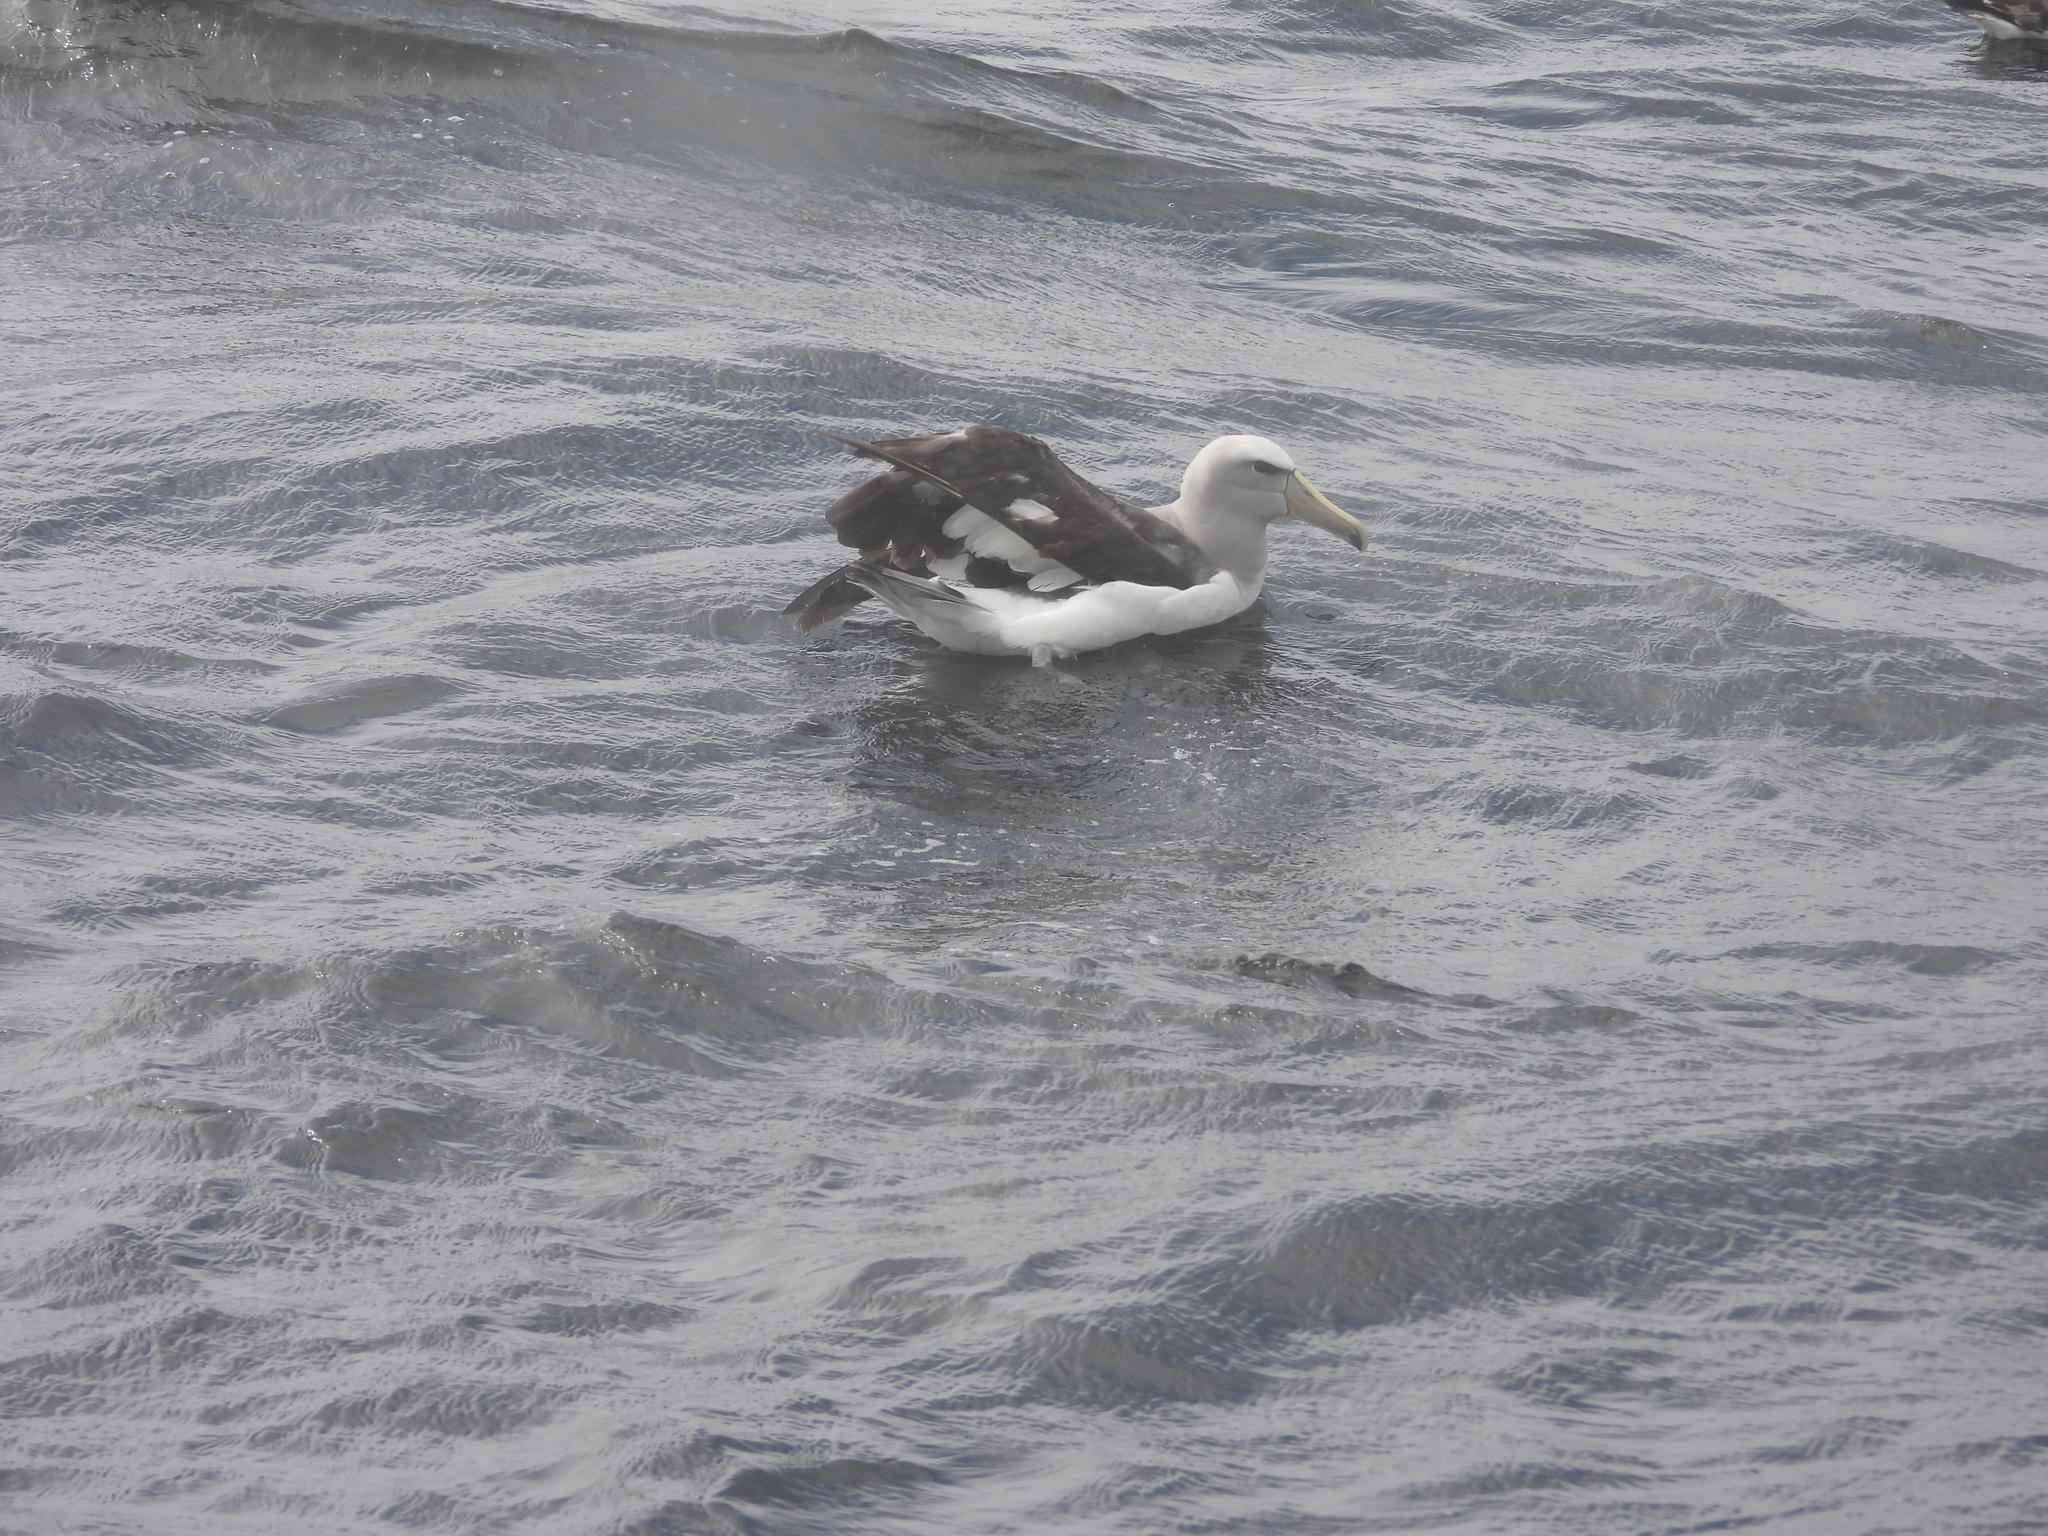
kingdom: Animalia
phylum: Chordata
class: Aves
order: Procellariiformes
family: Diomedeidae
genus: Thalassarche
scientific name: Thalassarche salvini
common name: Salvin's albatross
